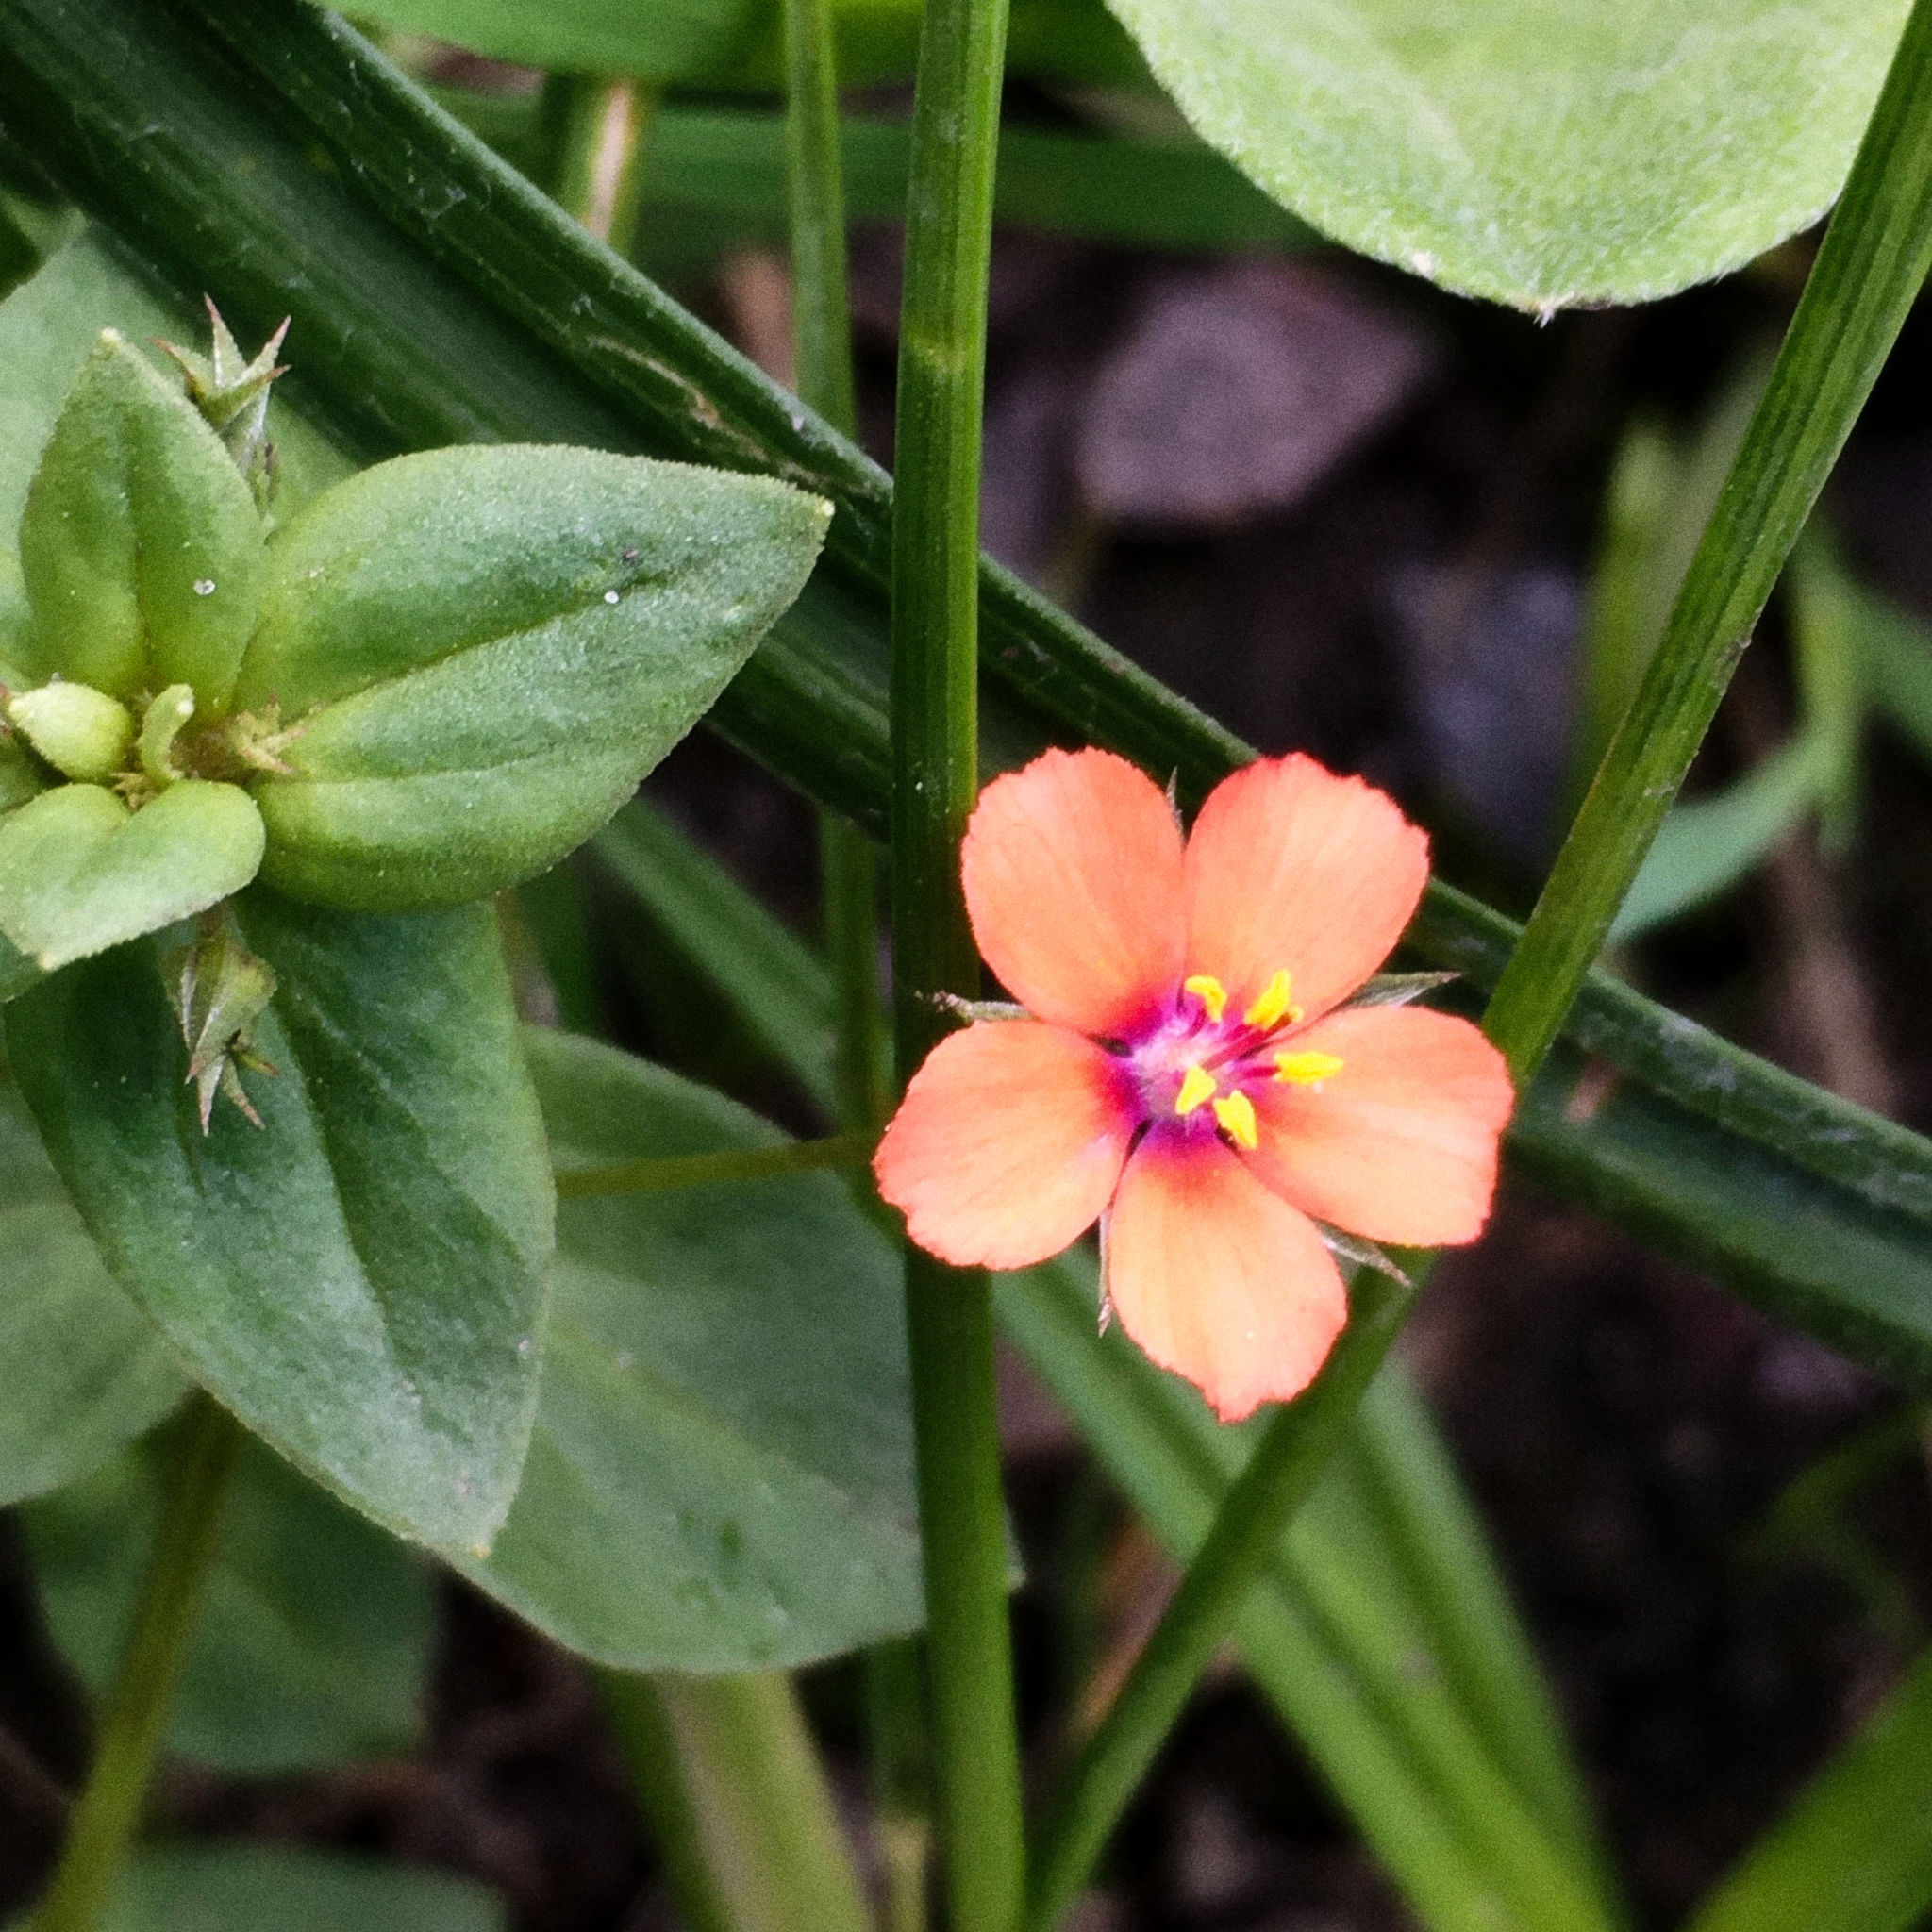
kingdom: Plantae
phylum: Tracheophyta
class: Magnoliopsida
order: Ericales
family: Primulaceae
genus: Lysimachia
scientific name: Lysimachia arvensis
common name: Scarlet pimpernel
